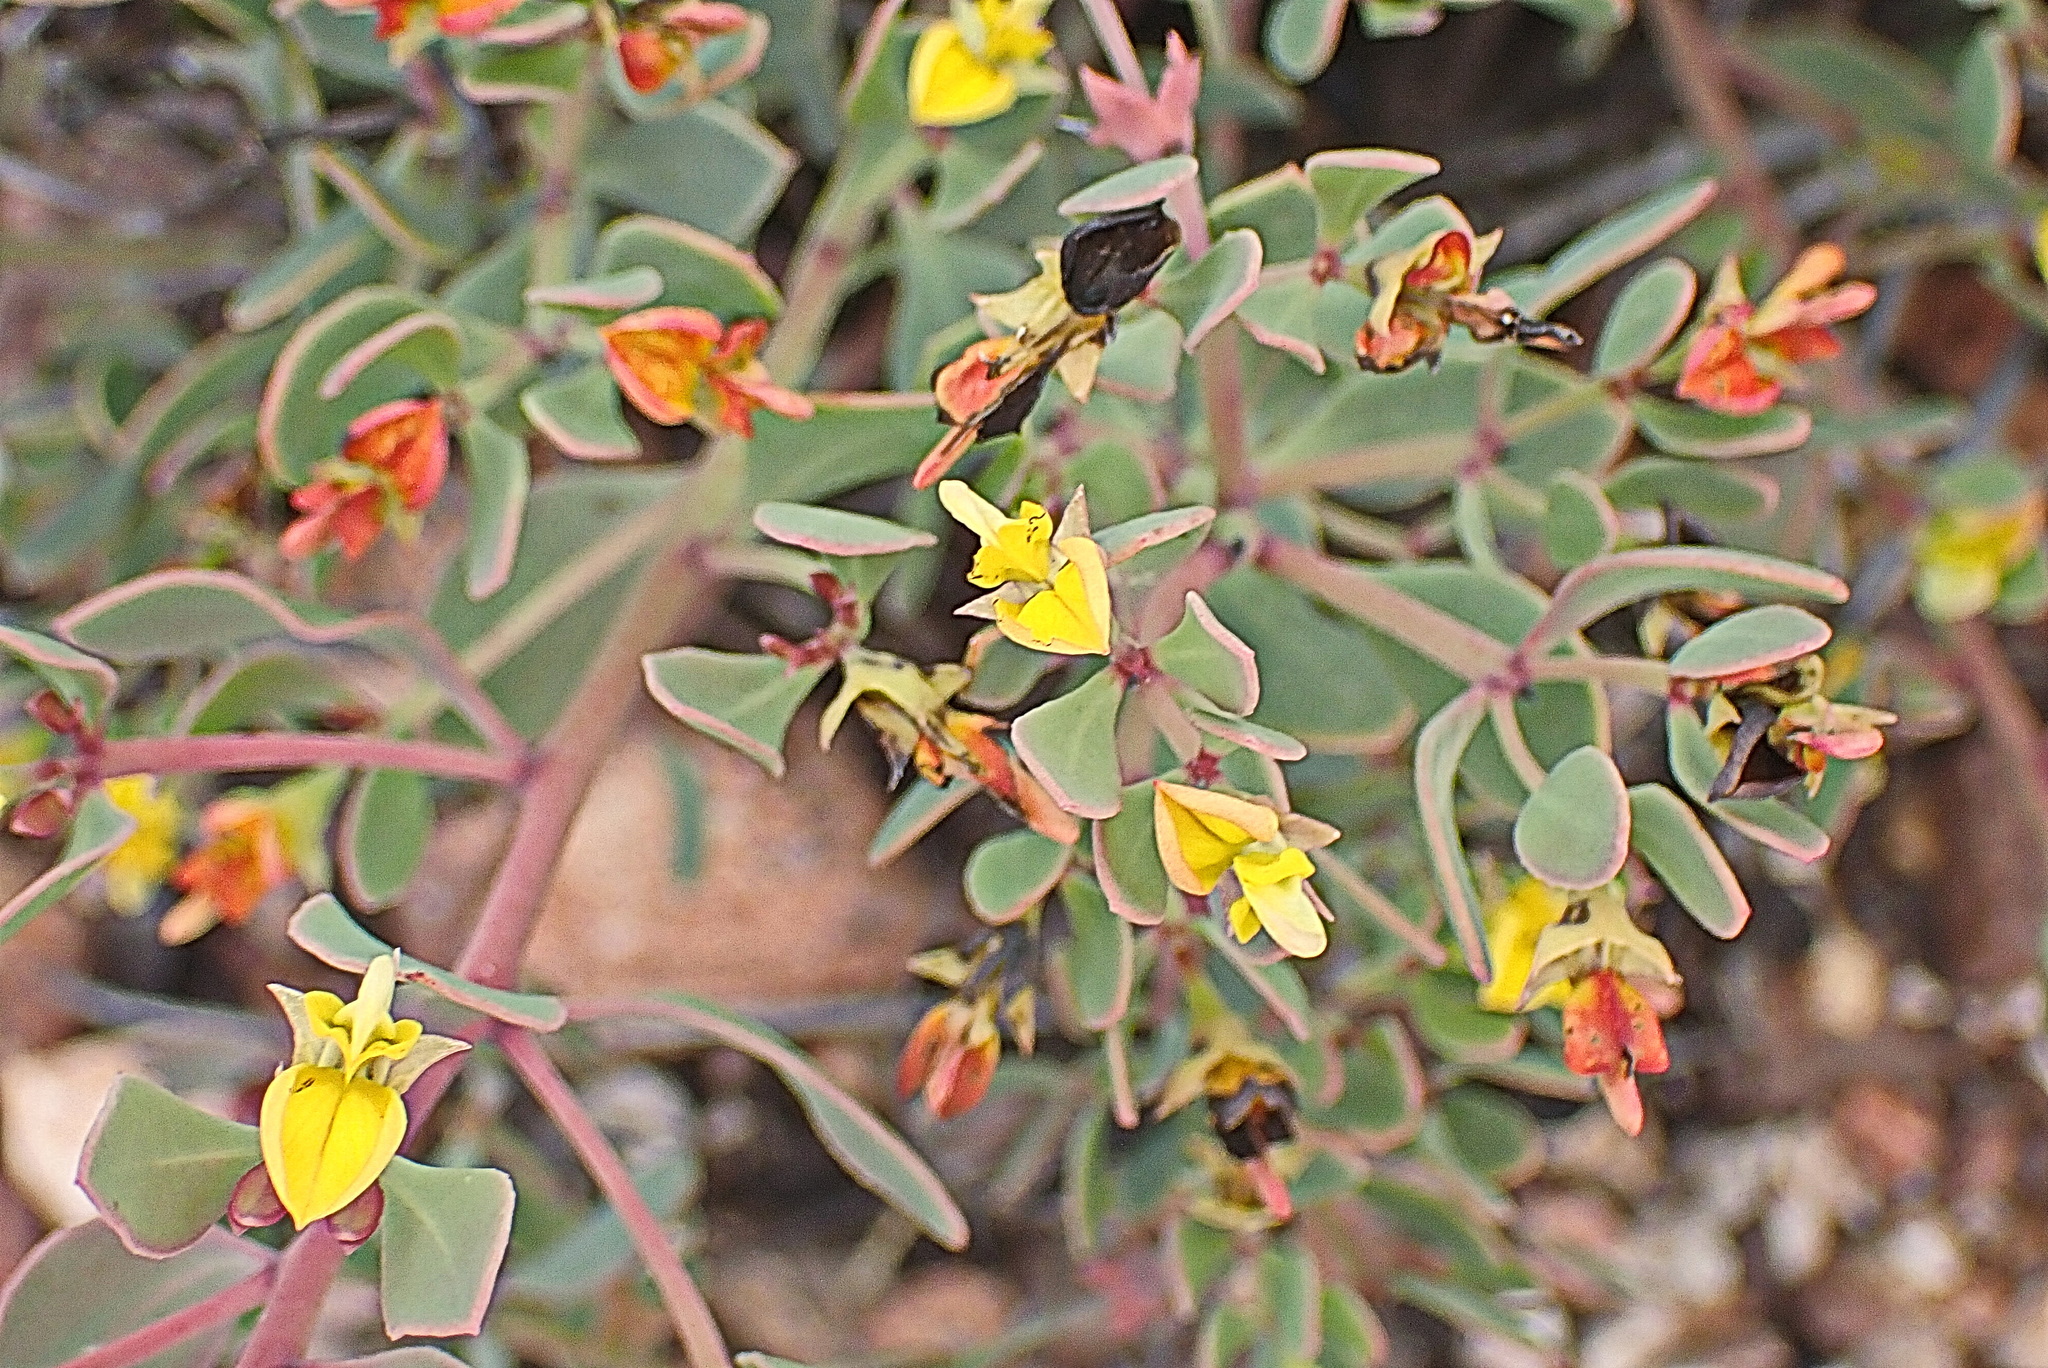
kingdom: Plantae
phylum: Tracheophyta
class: Magnoliopsida
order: Fabales
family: Fabaceae
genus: Rafnia
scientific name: Rafnia capensis
